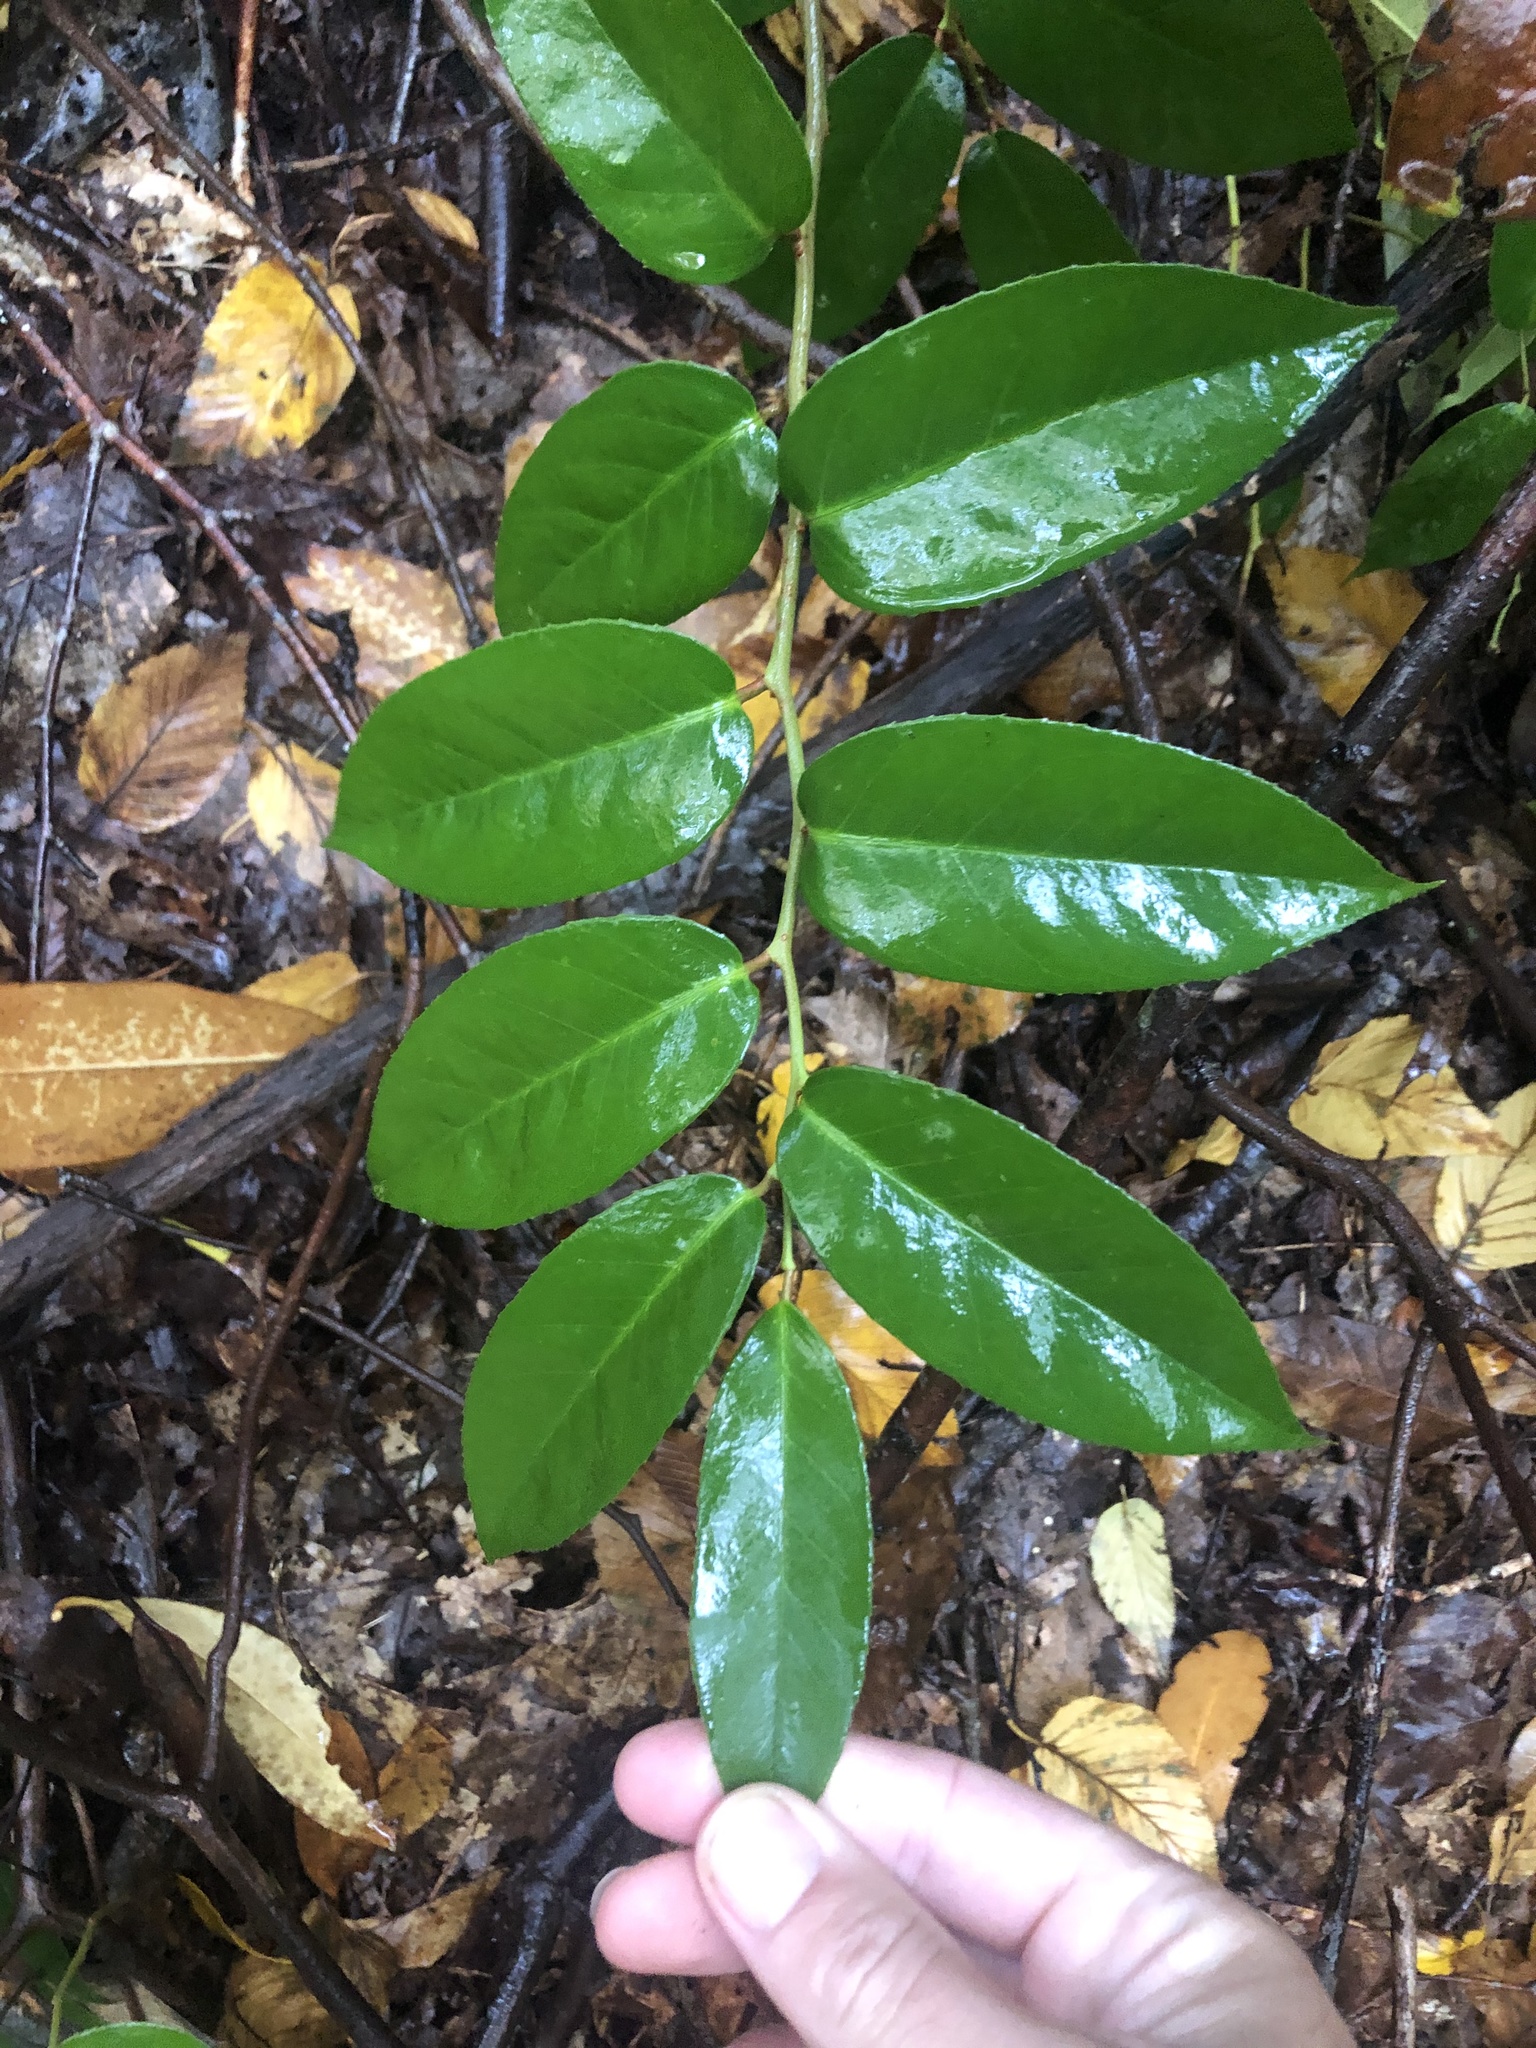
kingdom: Plantae
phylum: Tracheophyta
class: Magnoliopsida
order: Ericales
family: Ericaceae
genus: Leucothoe
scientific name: Leucothoe fontanesiana
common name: Fetterbush
